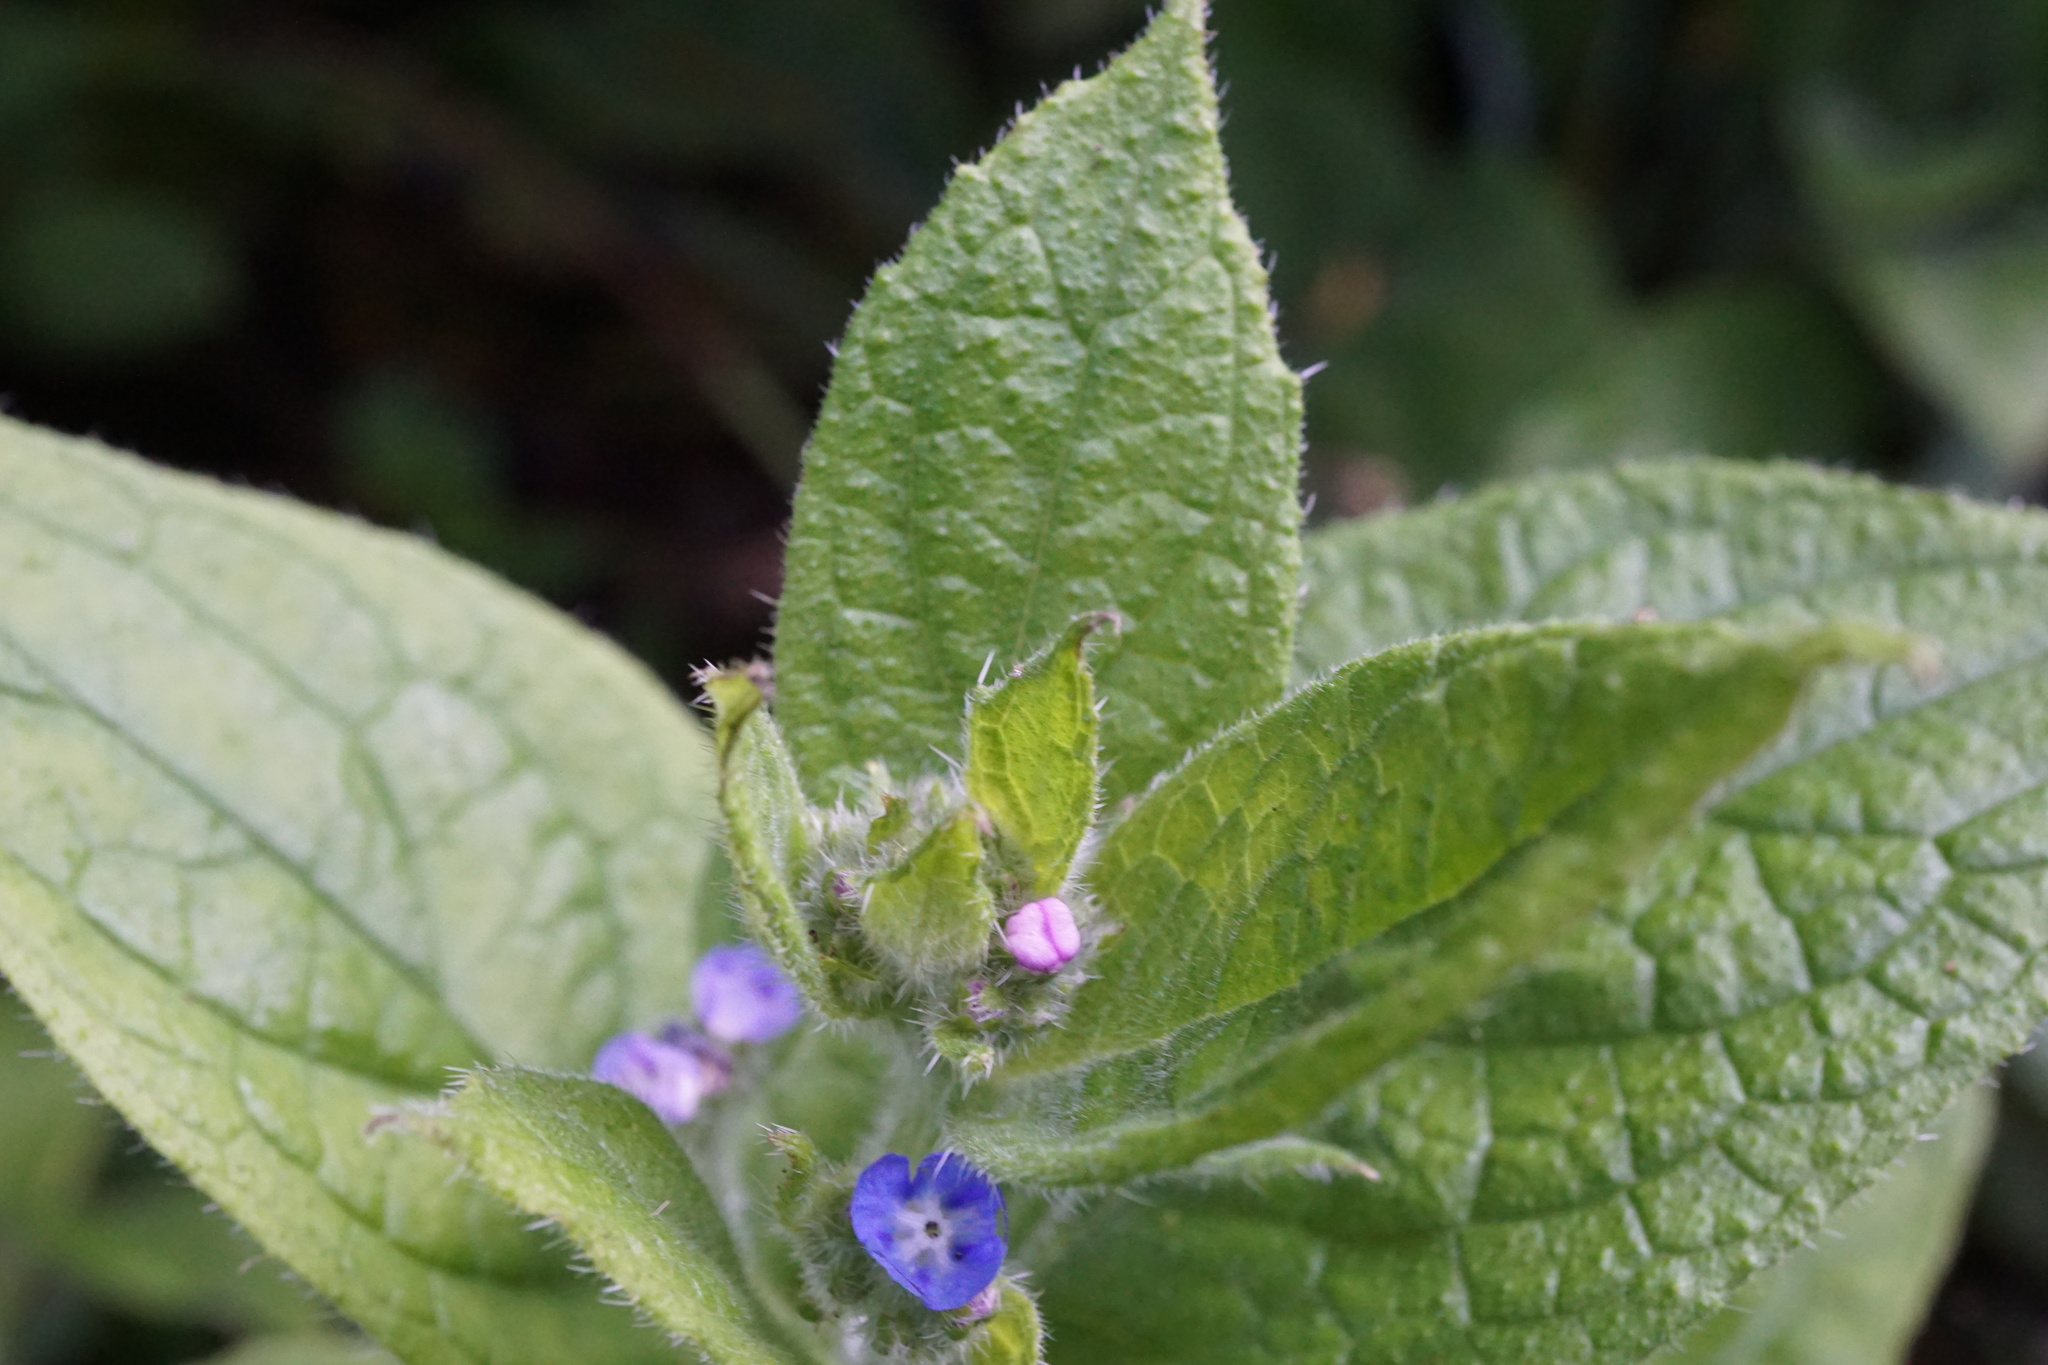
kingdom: Plantae
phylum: Tracheophyta
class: Magnoliopsida
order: Boraginales
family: Boraginaceae
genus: Pentaglottis
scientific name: Pentaglottis sempervirens
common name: Green alkanet
